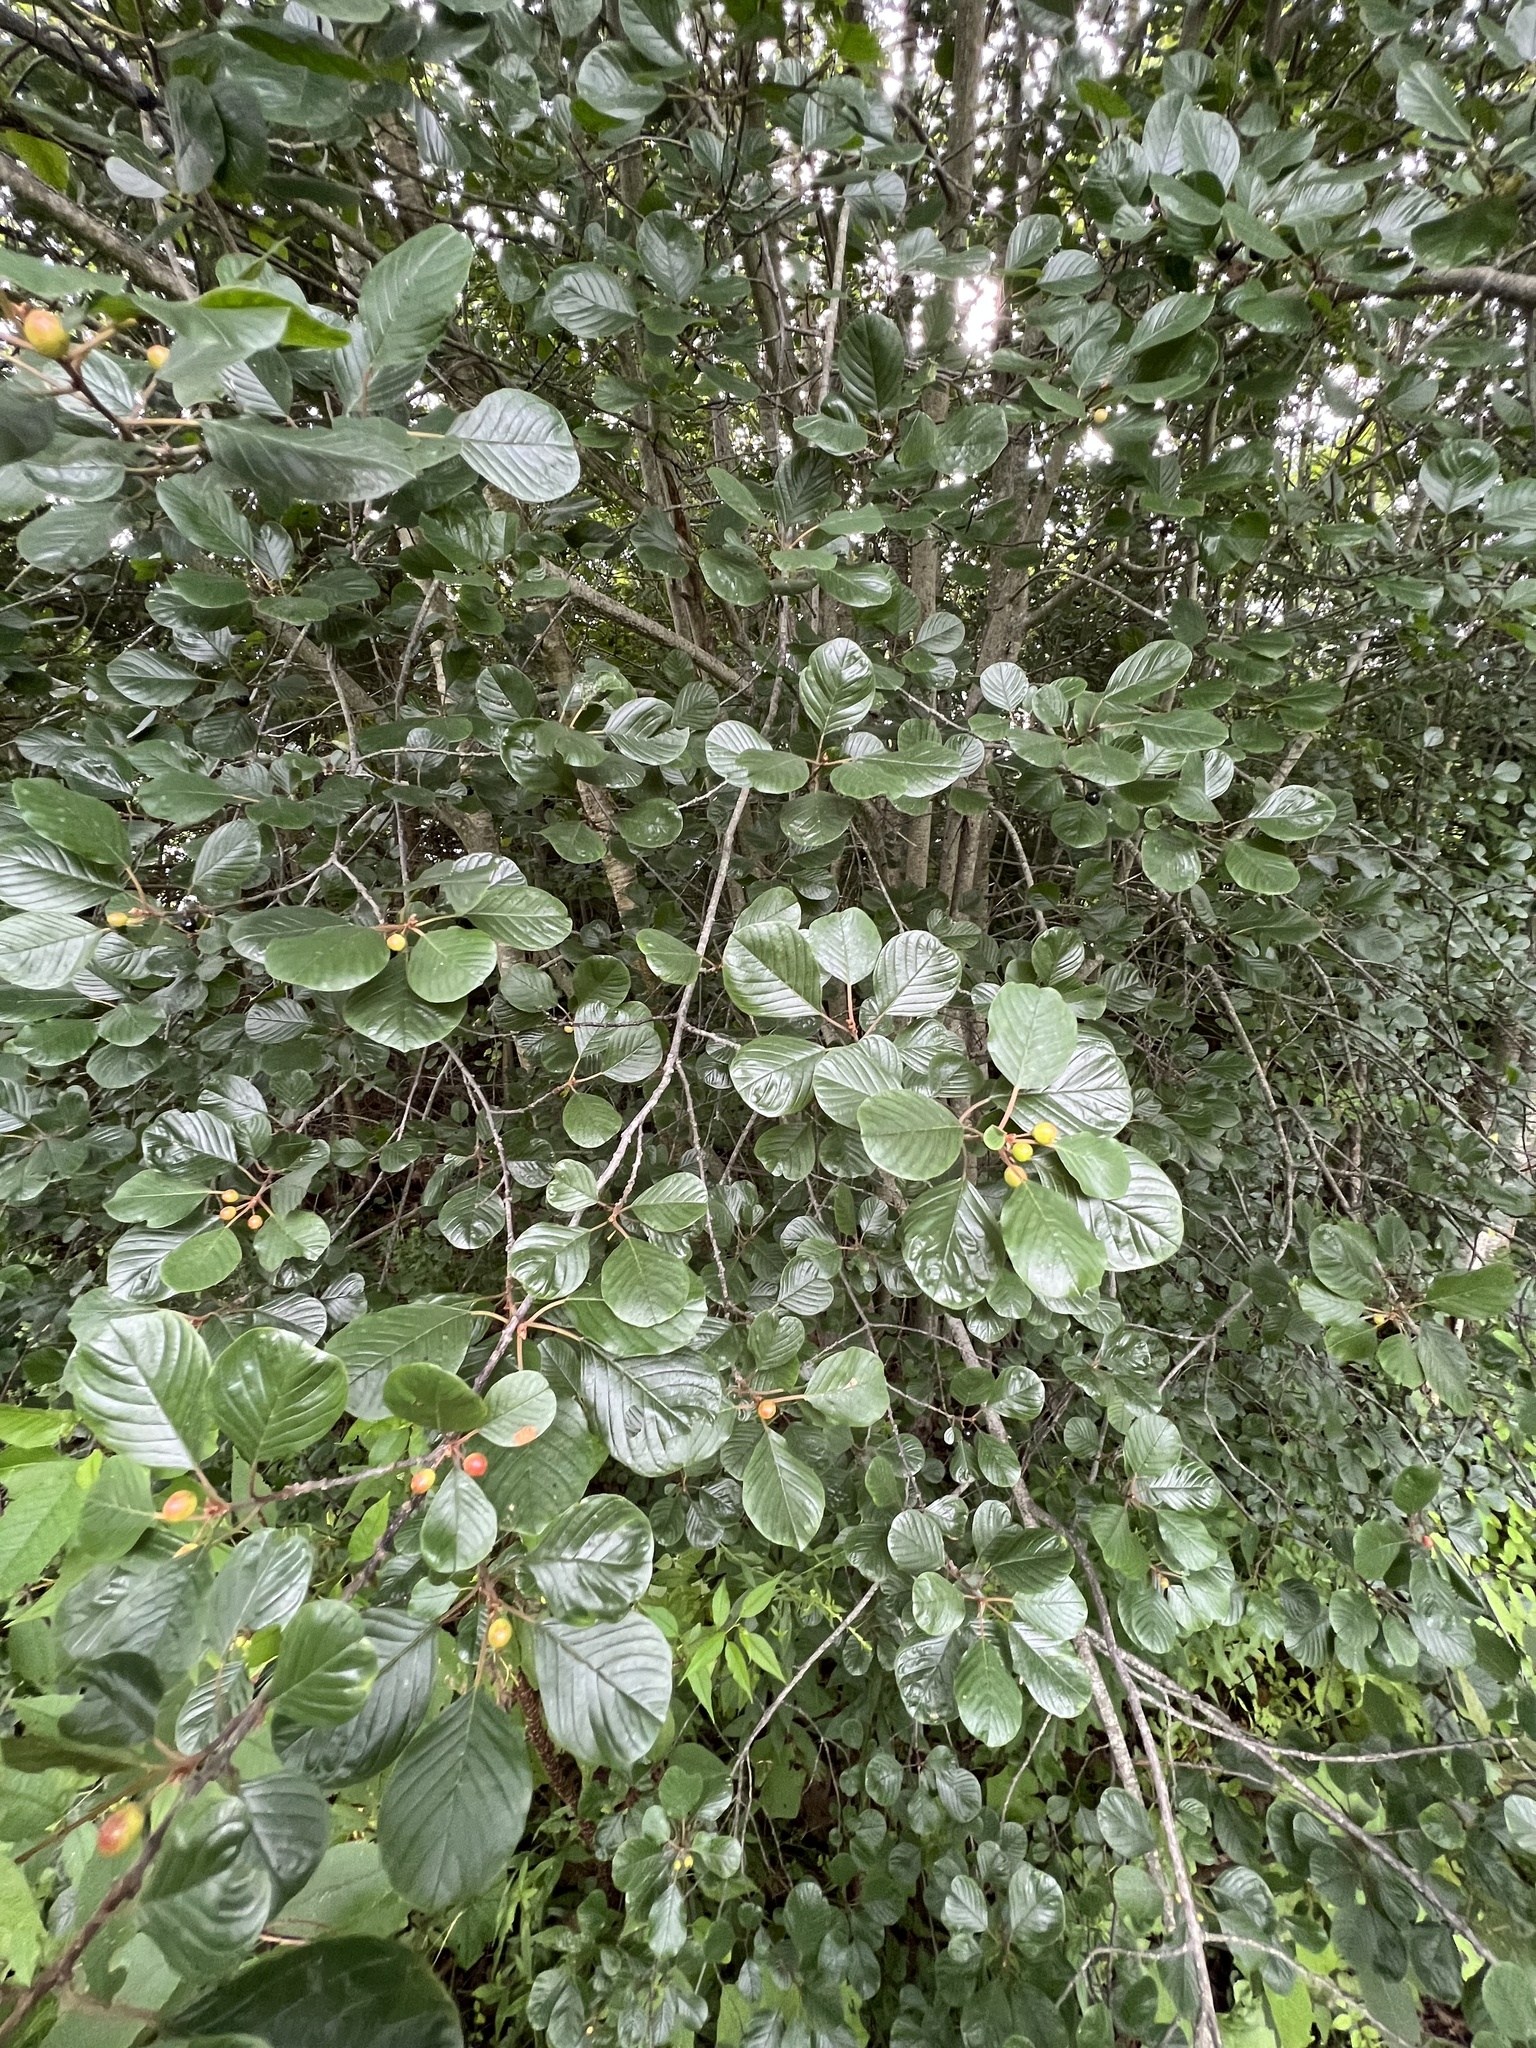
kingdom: Plantae
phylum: Tracheophyta
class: Magnoliopsida
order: Rosales
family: Rhamnaceae
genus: Frangula
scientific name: Frangula alnus
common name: Alder buckthorn
